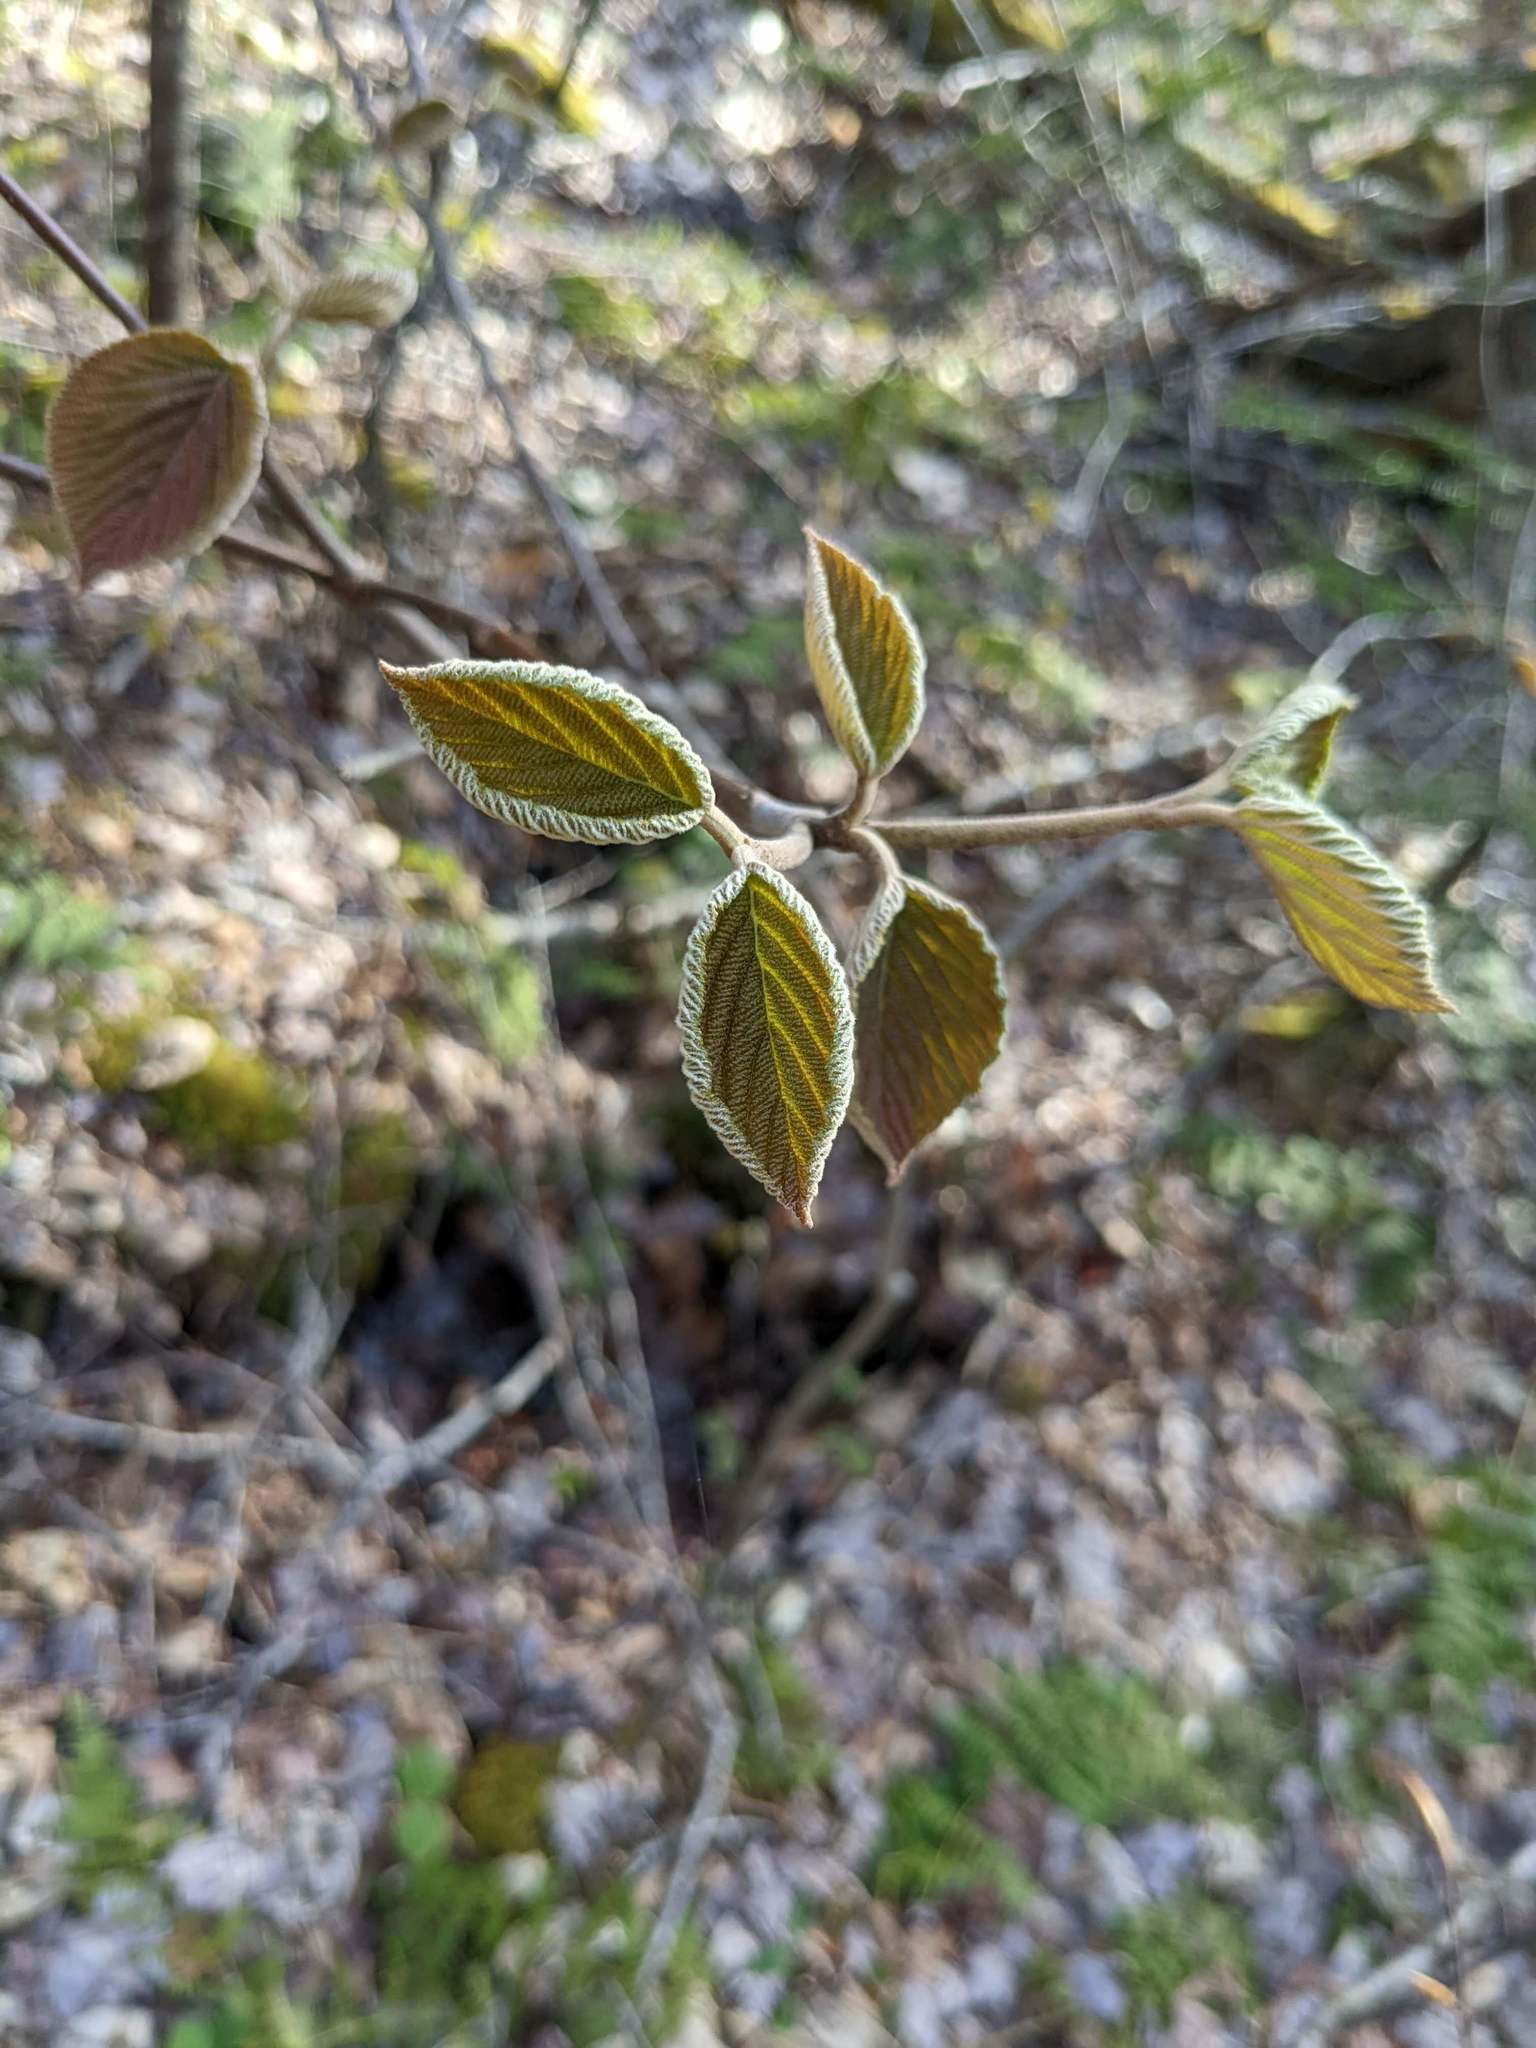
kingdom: Plantae
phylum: Tracheophyta
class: Magnoliopsida
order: Dipsacales
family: Viburnaceae
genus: Viburnum
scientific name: Viburnum lantanoides
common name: Hobblebush
